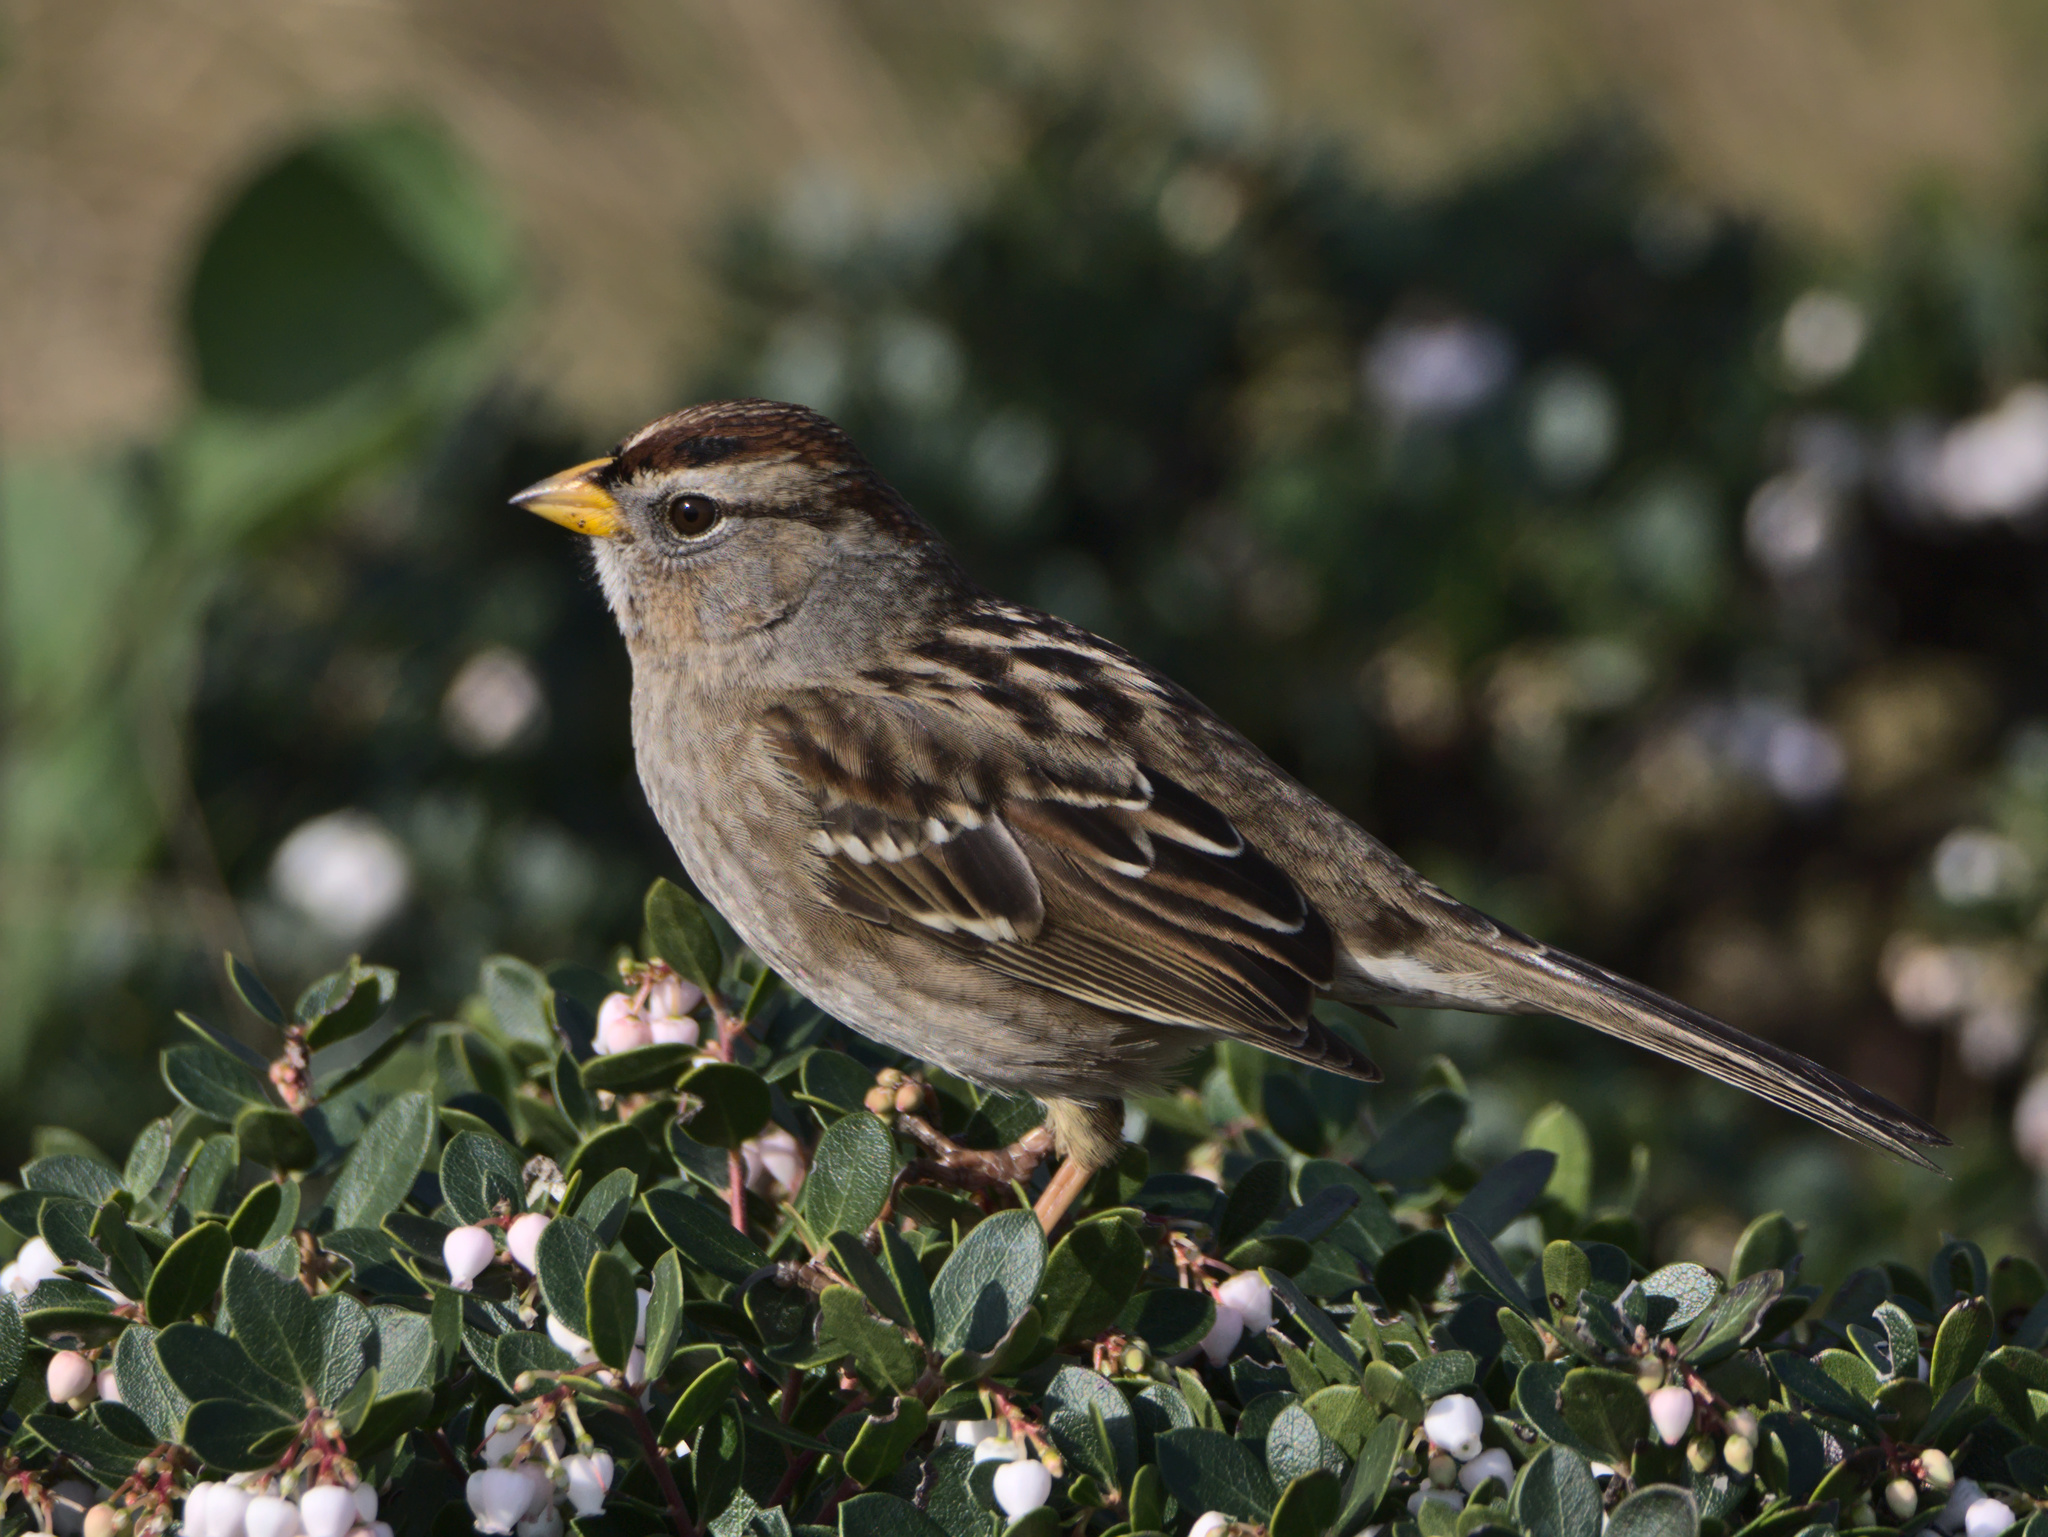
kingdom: Animalia
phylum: Chordata
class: Aves
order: Passeriformes
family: Passerellidae
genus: Zonotrichia
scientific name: Zonotrichia leucophrys
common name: White-crowned sparrow
